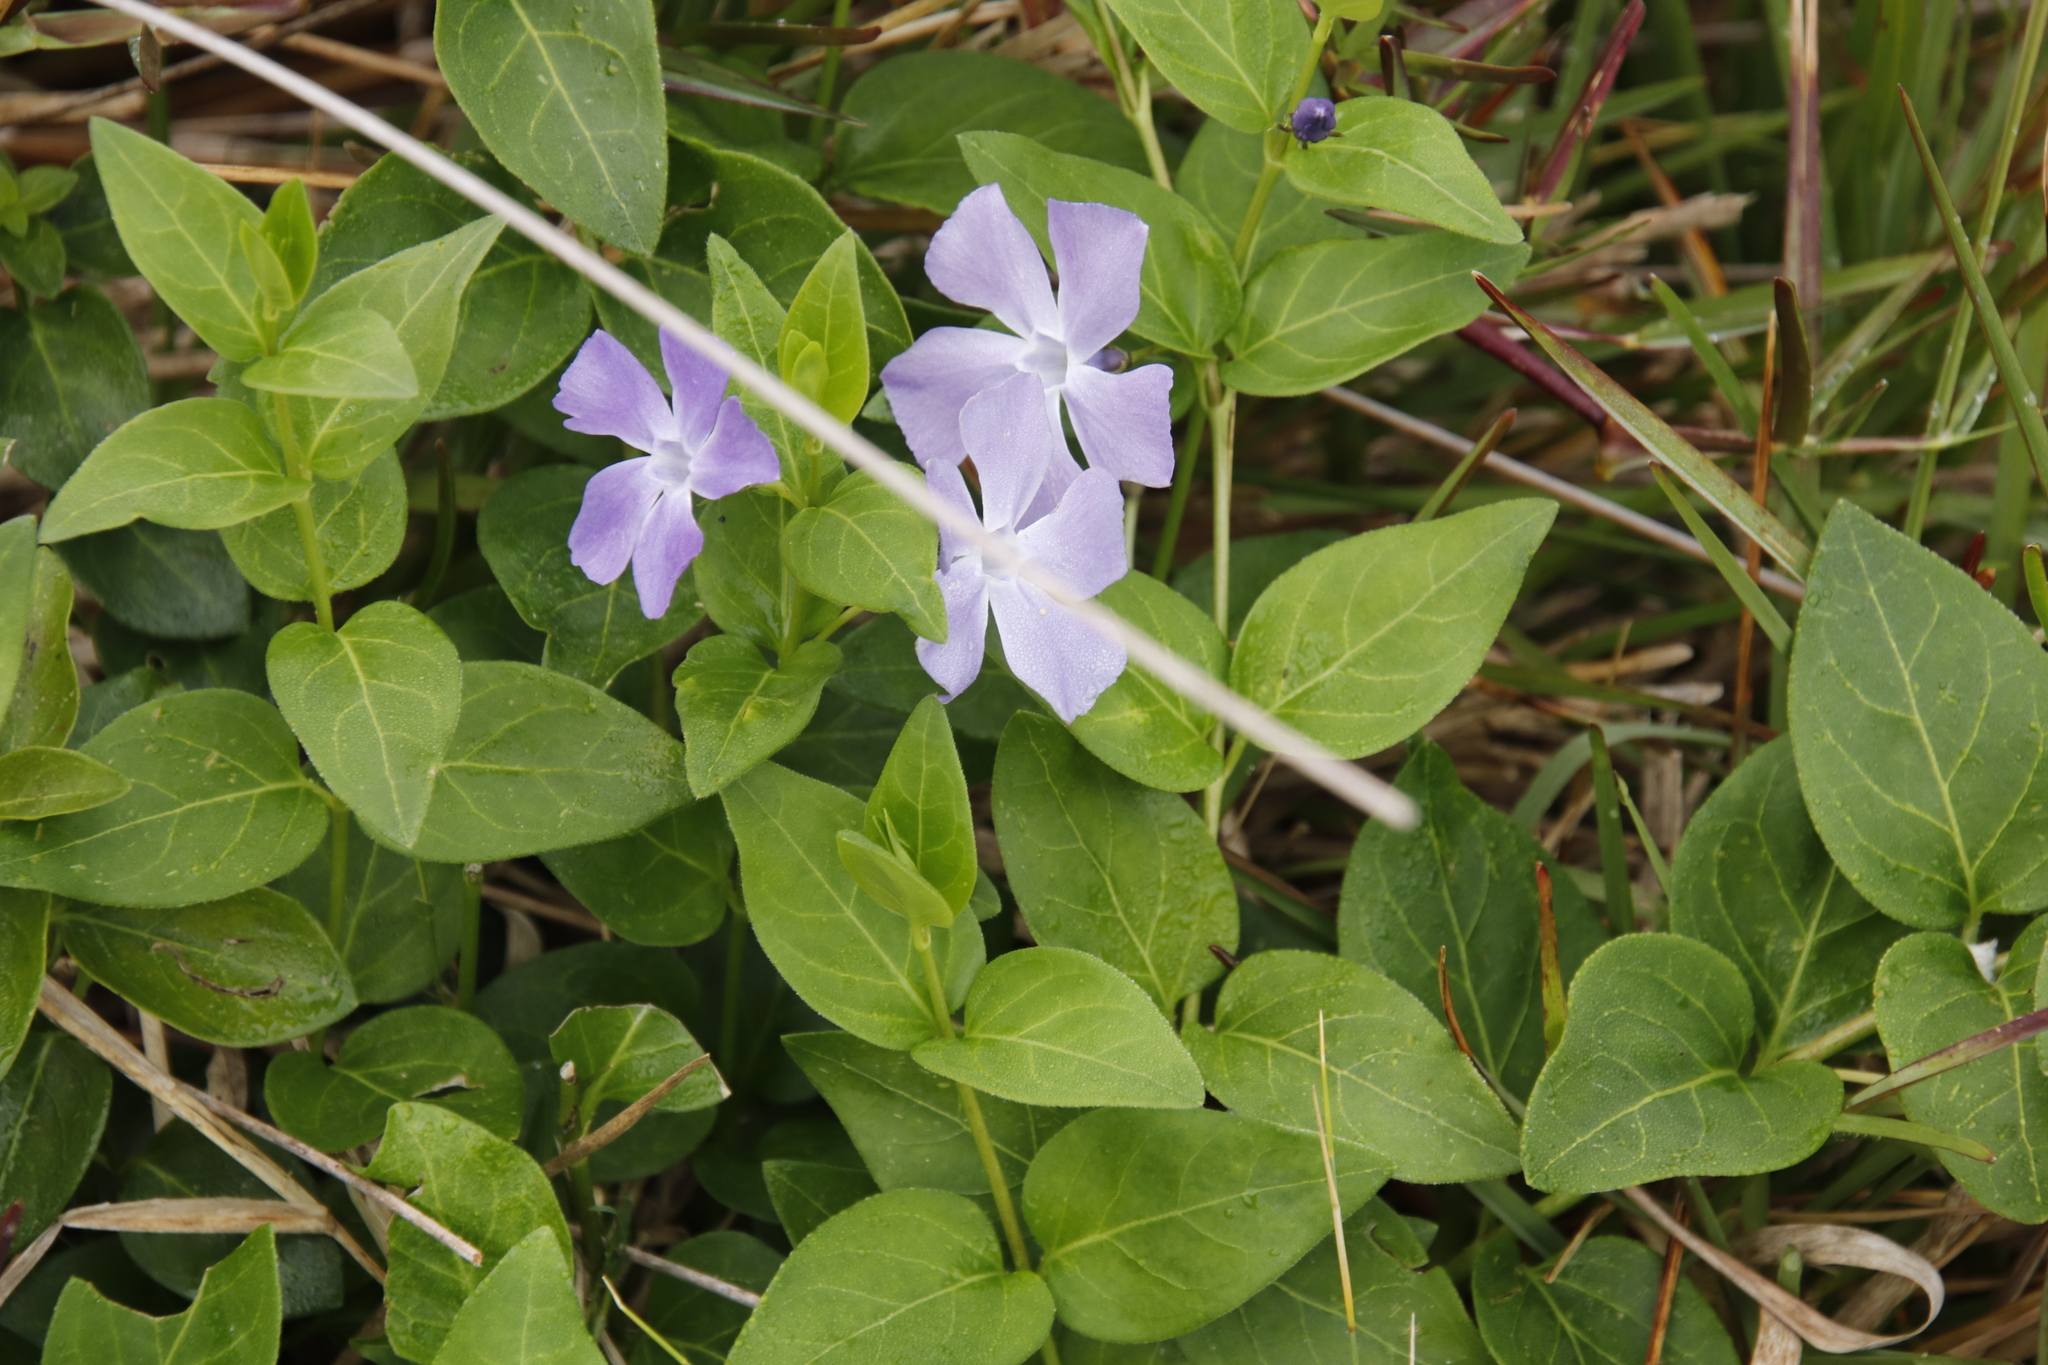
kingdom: Plantae
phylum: Tracheophyta
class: Magnoliopsida
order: Gentianales
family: Apocynaceae
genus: Vinca
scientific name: Vinca major
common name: Greater periwinkle
